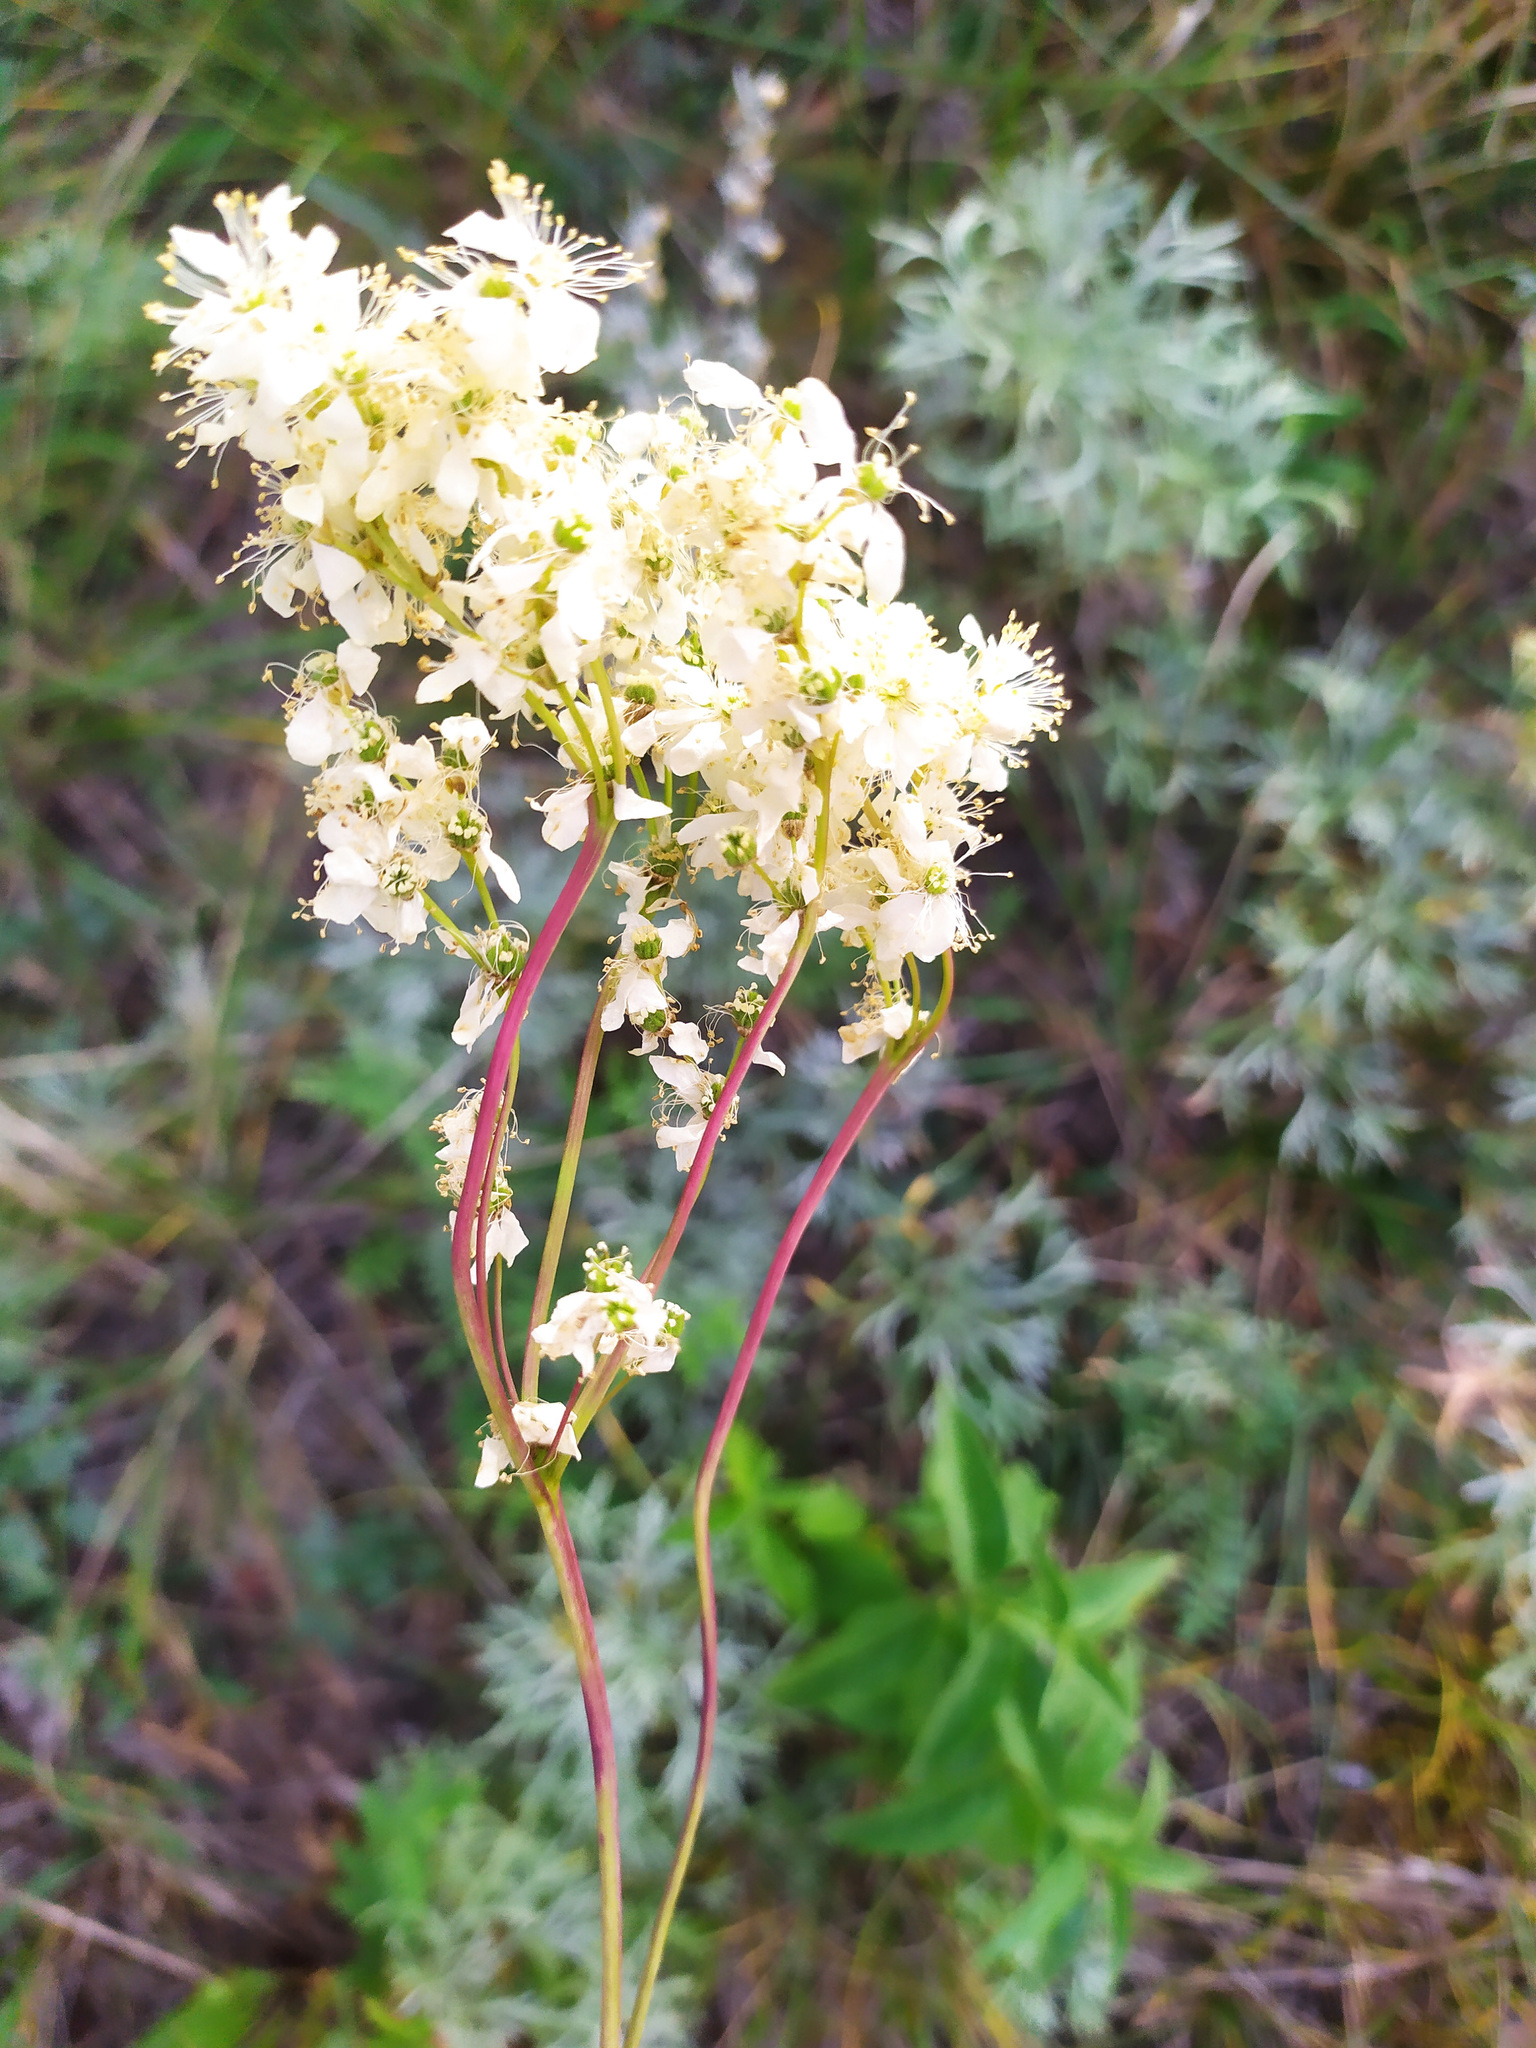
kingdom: Plantae
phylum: Tracheophyta
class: Magnoliopsida
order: Rosales
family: Rosaceae
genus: Filipendula
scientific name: Filipendula vulgaris
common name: Dropwort
